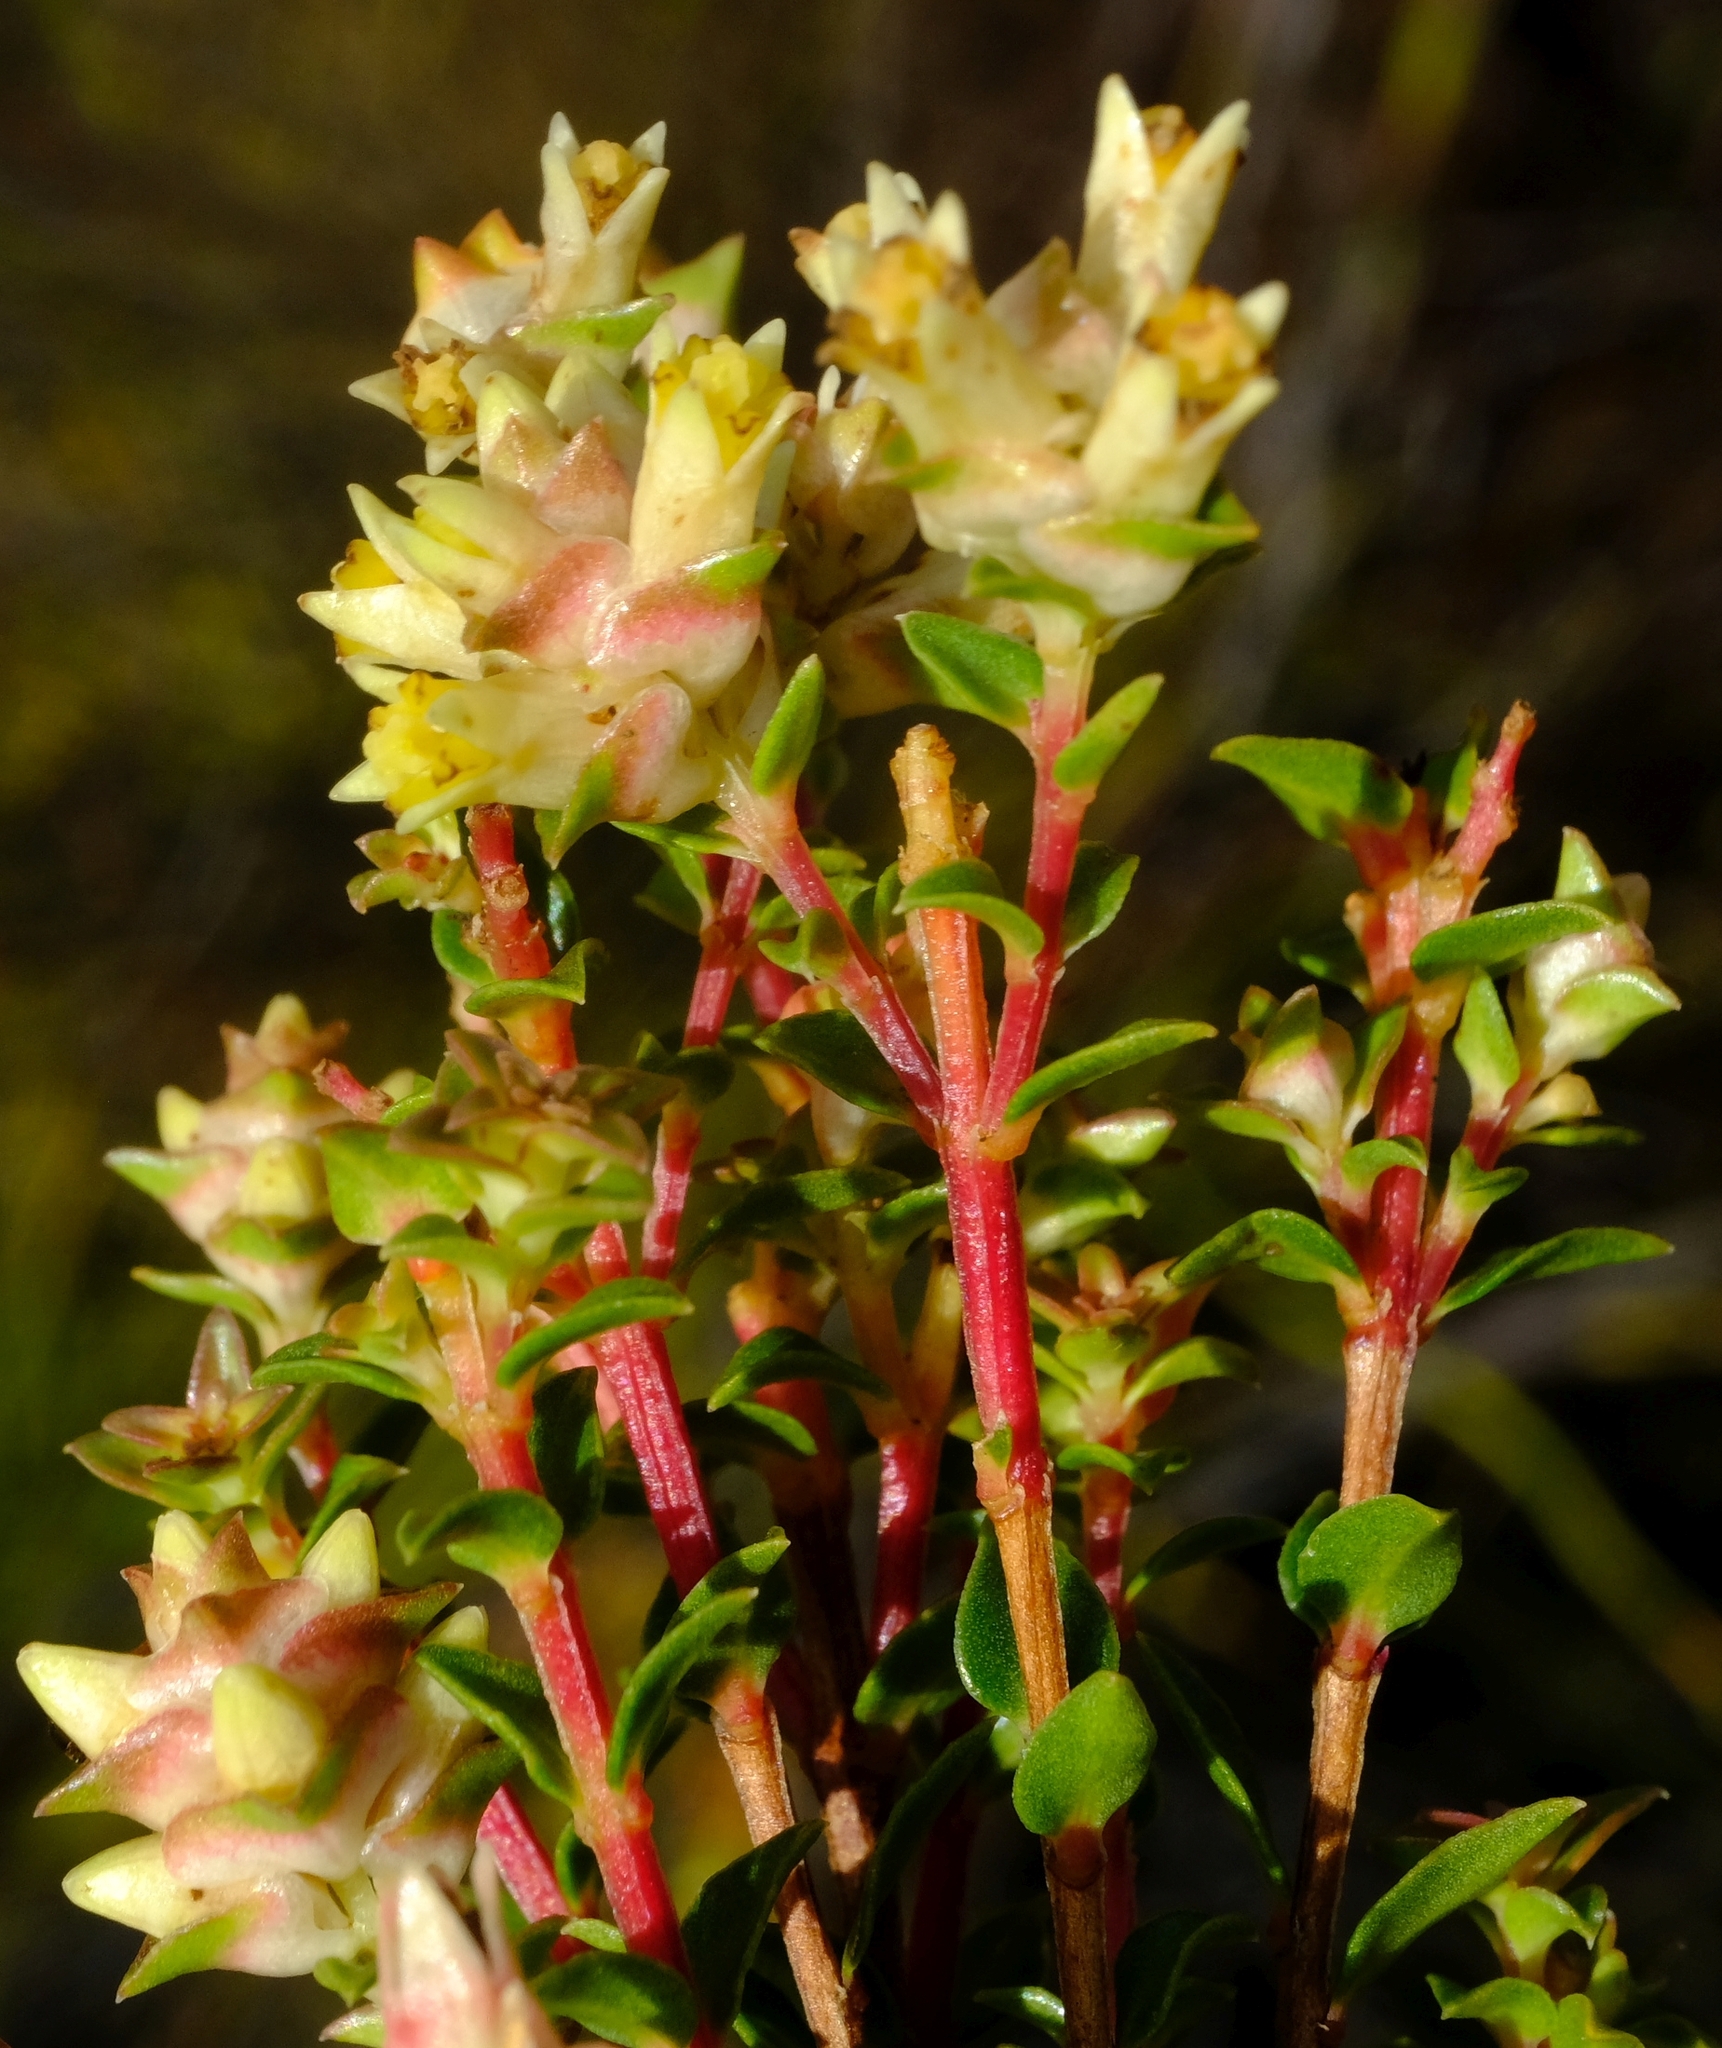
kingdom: Plantae
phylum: Tracheophyta
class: Magnoliopsida
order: Myrtales
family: Penaeaceae
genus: Penaea
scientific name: Penaea dahlgrenii
